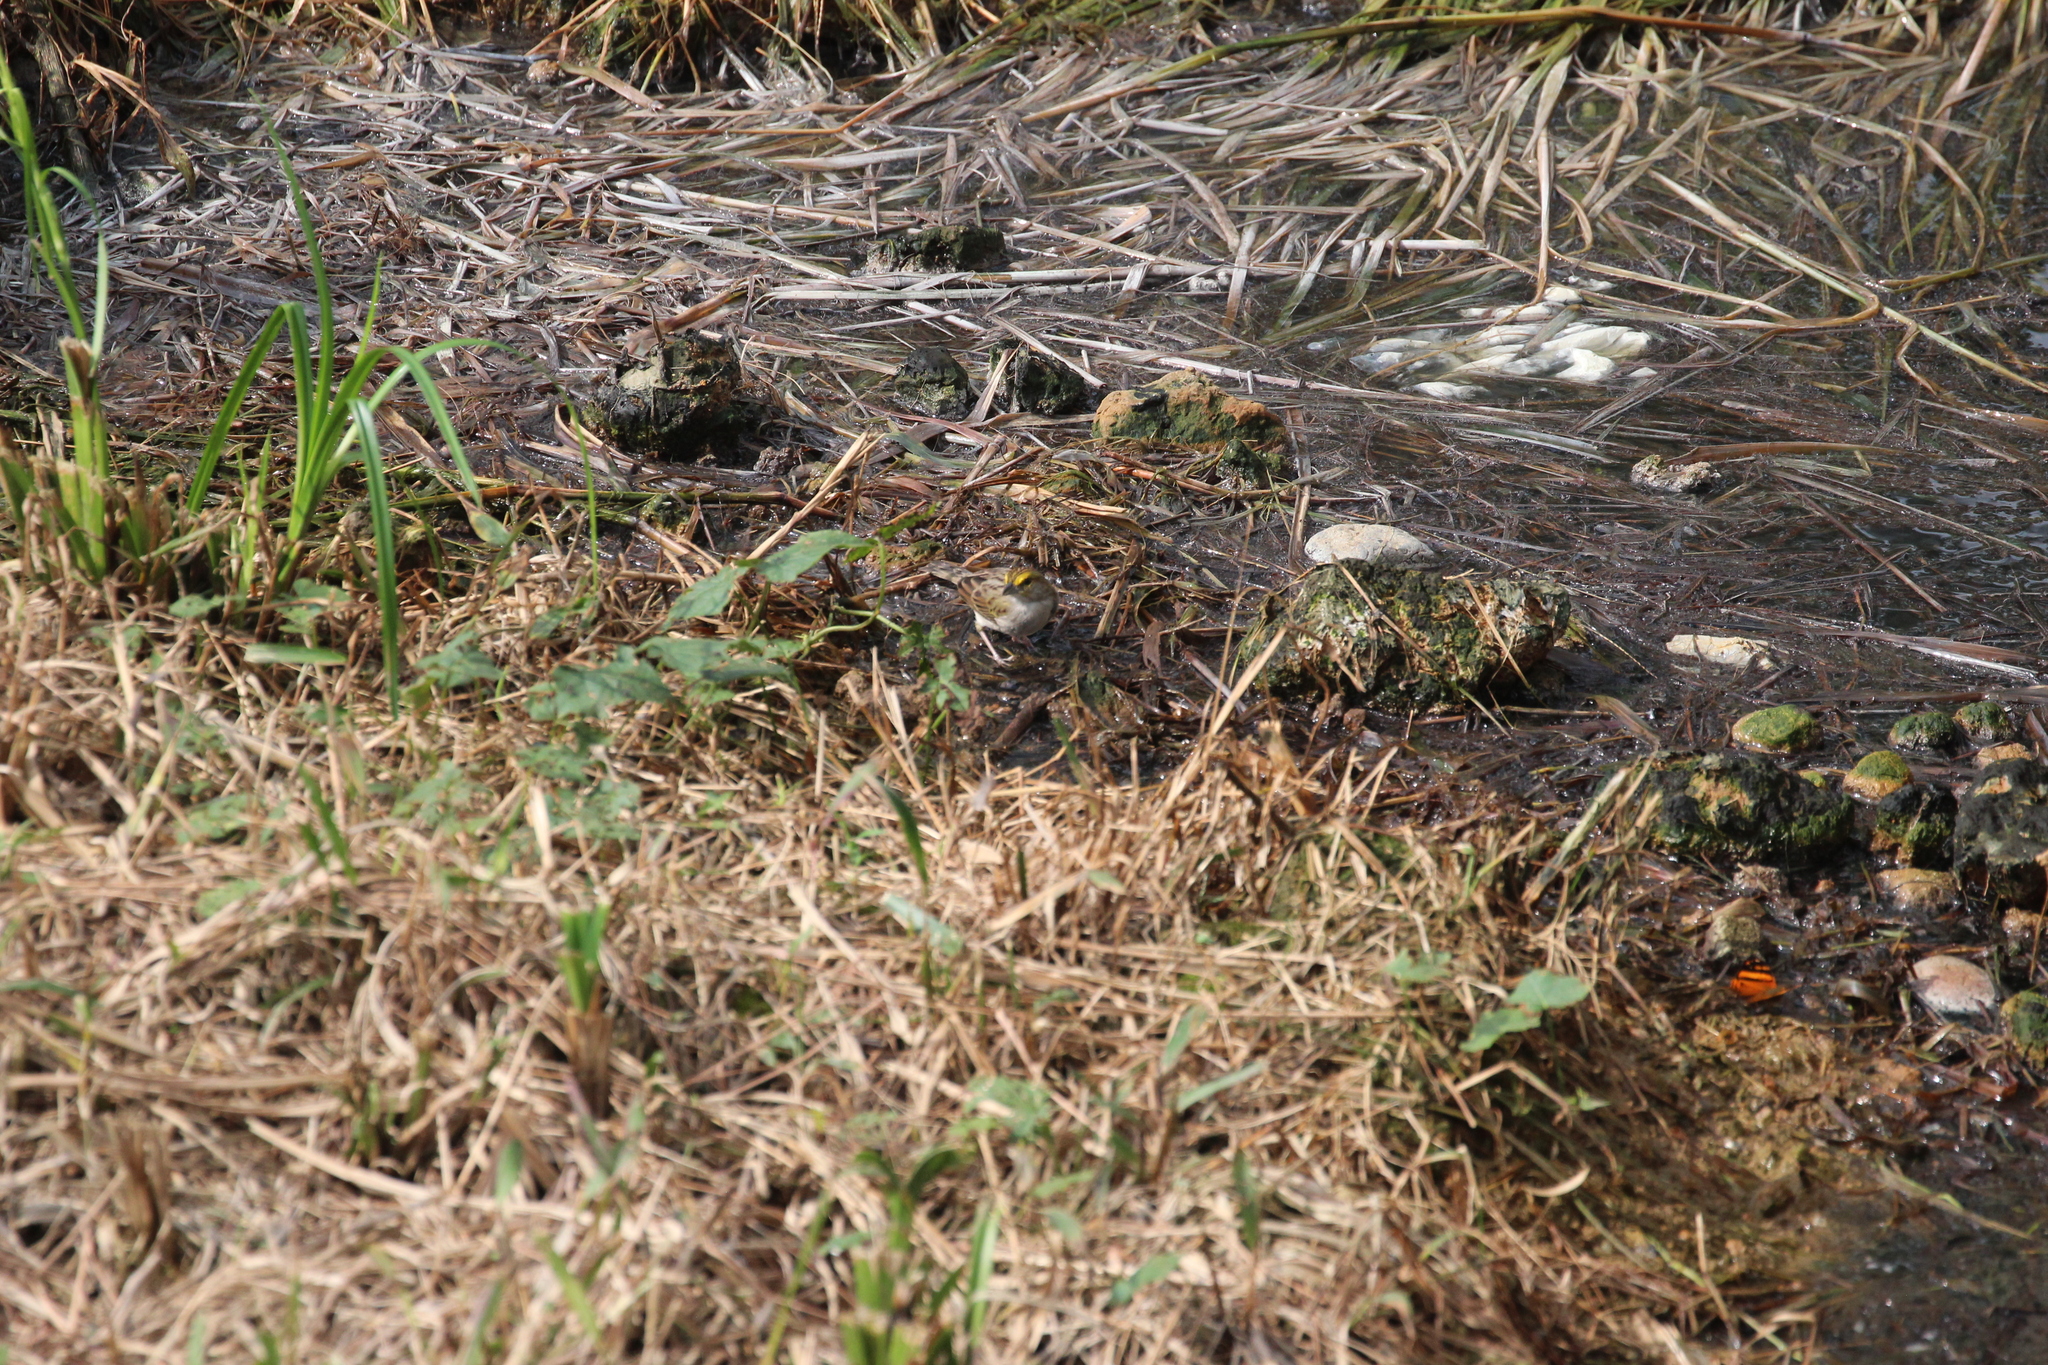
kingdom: Animalia
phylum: Chordata
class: Aves
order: Passeriformes
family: Passerellidae
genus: Ammodramus
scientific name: Ammodramus aurifrons
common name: Yellow-browed sparrow
